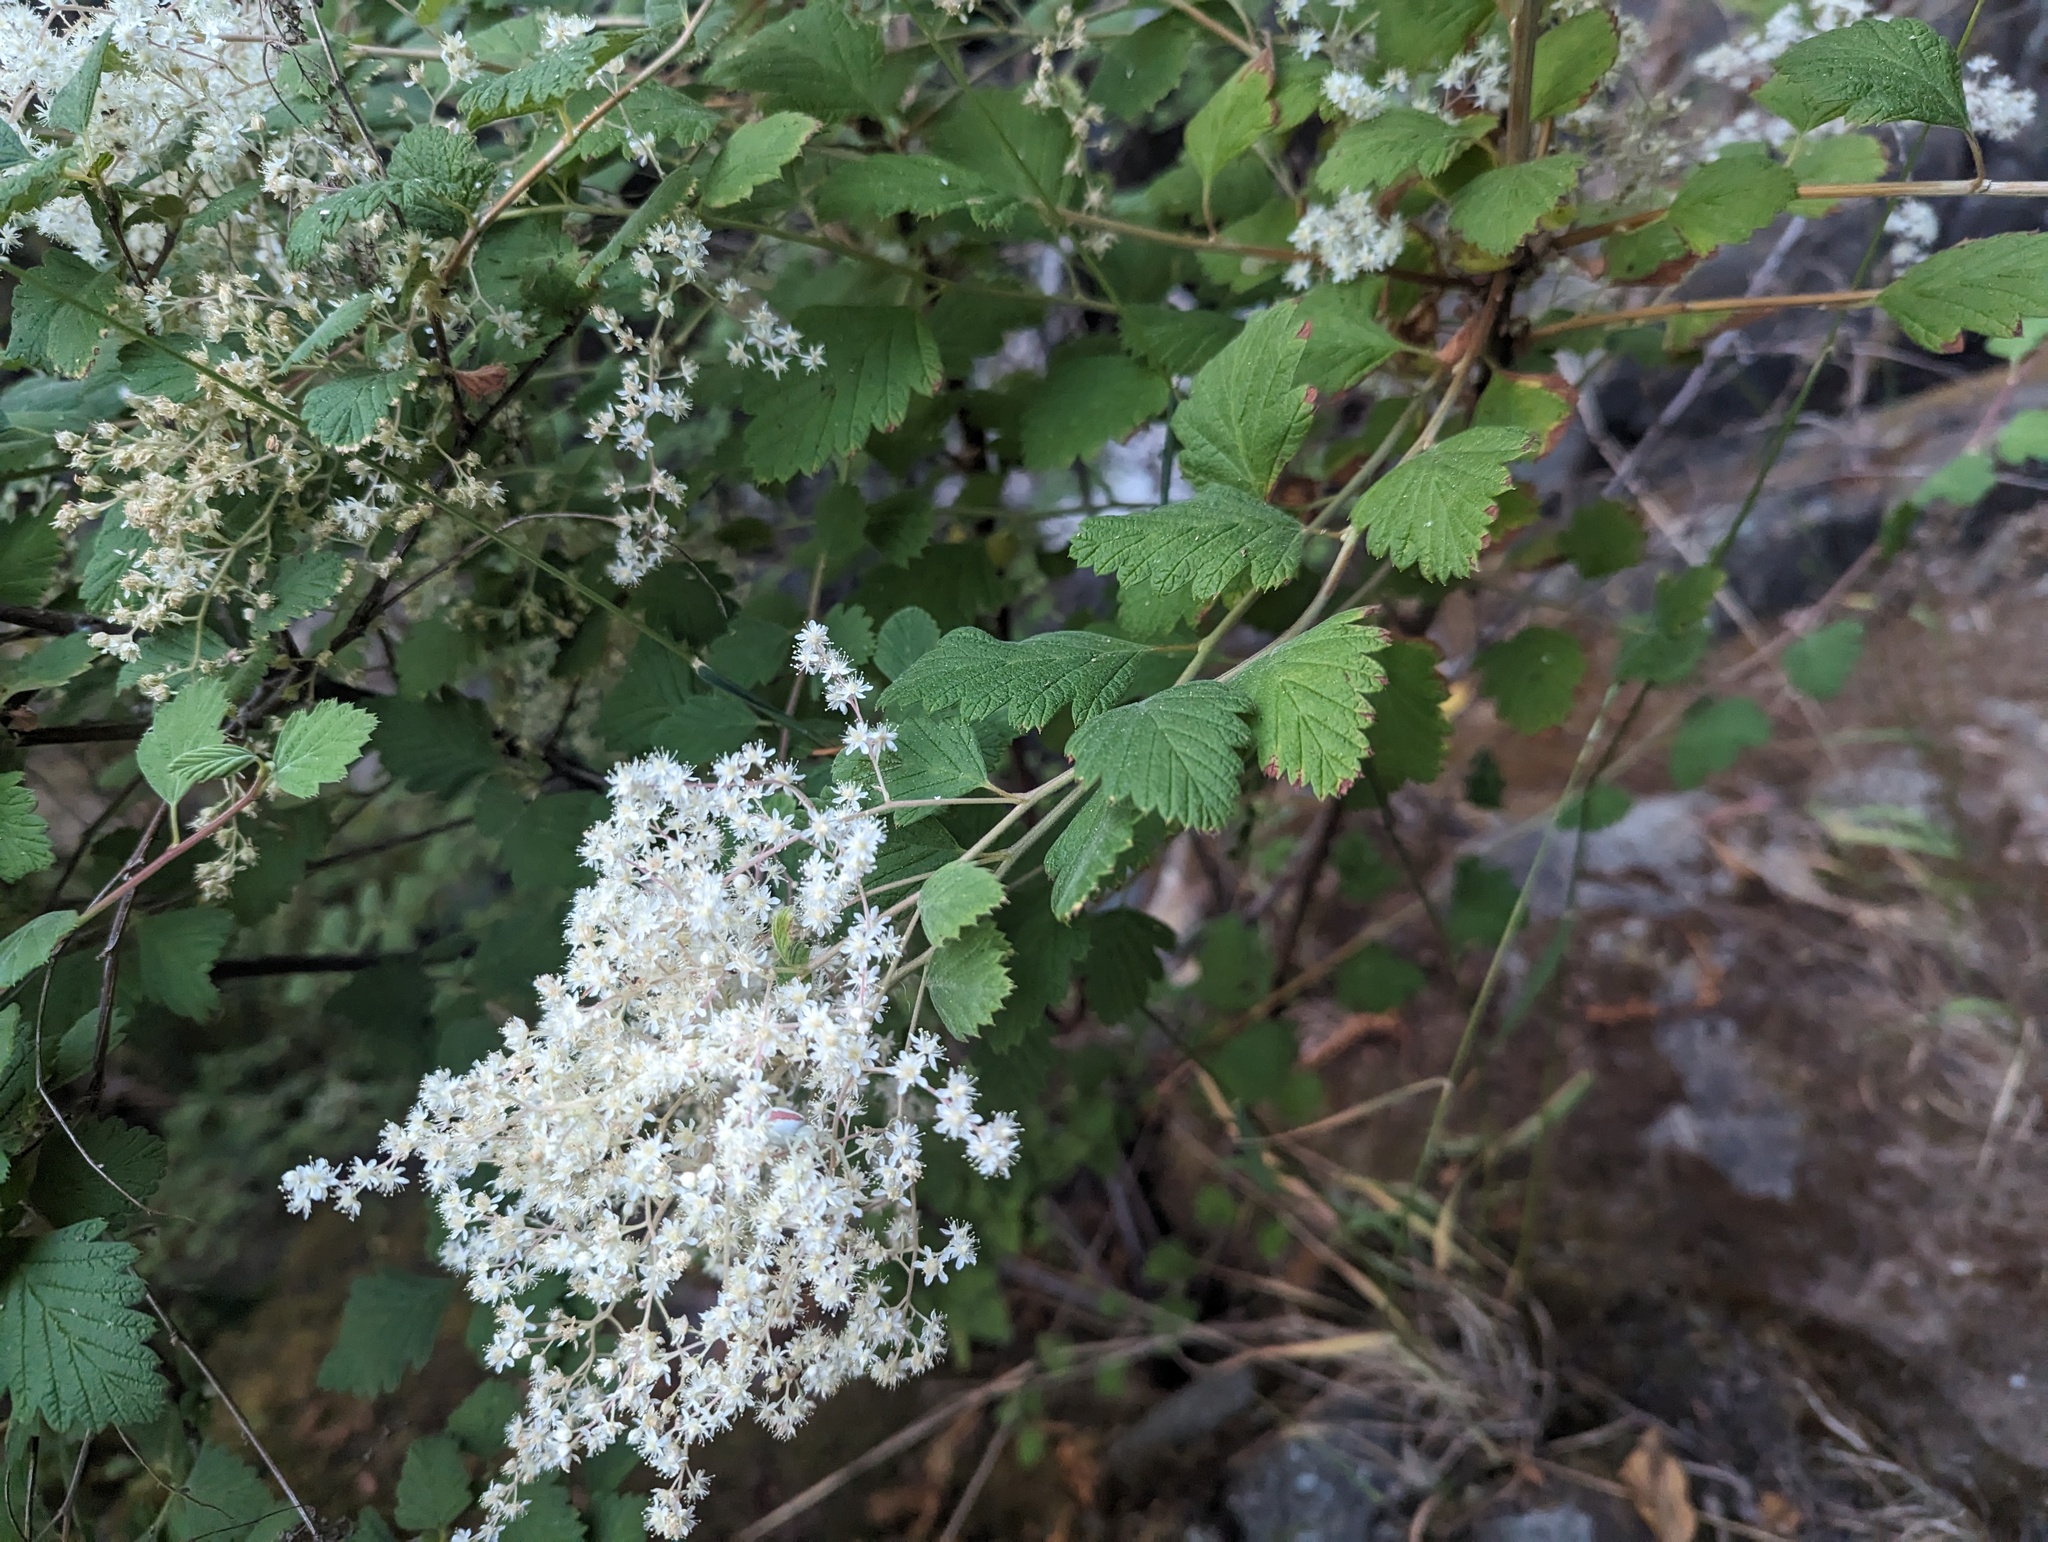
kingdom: Plantae
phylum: Tracheophyta
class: Magnoliopsida
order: Rosales
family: Rosaceae
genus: Holodiscus
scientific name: Holodiscus discolor
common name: Oceanspray
